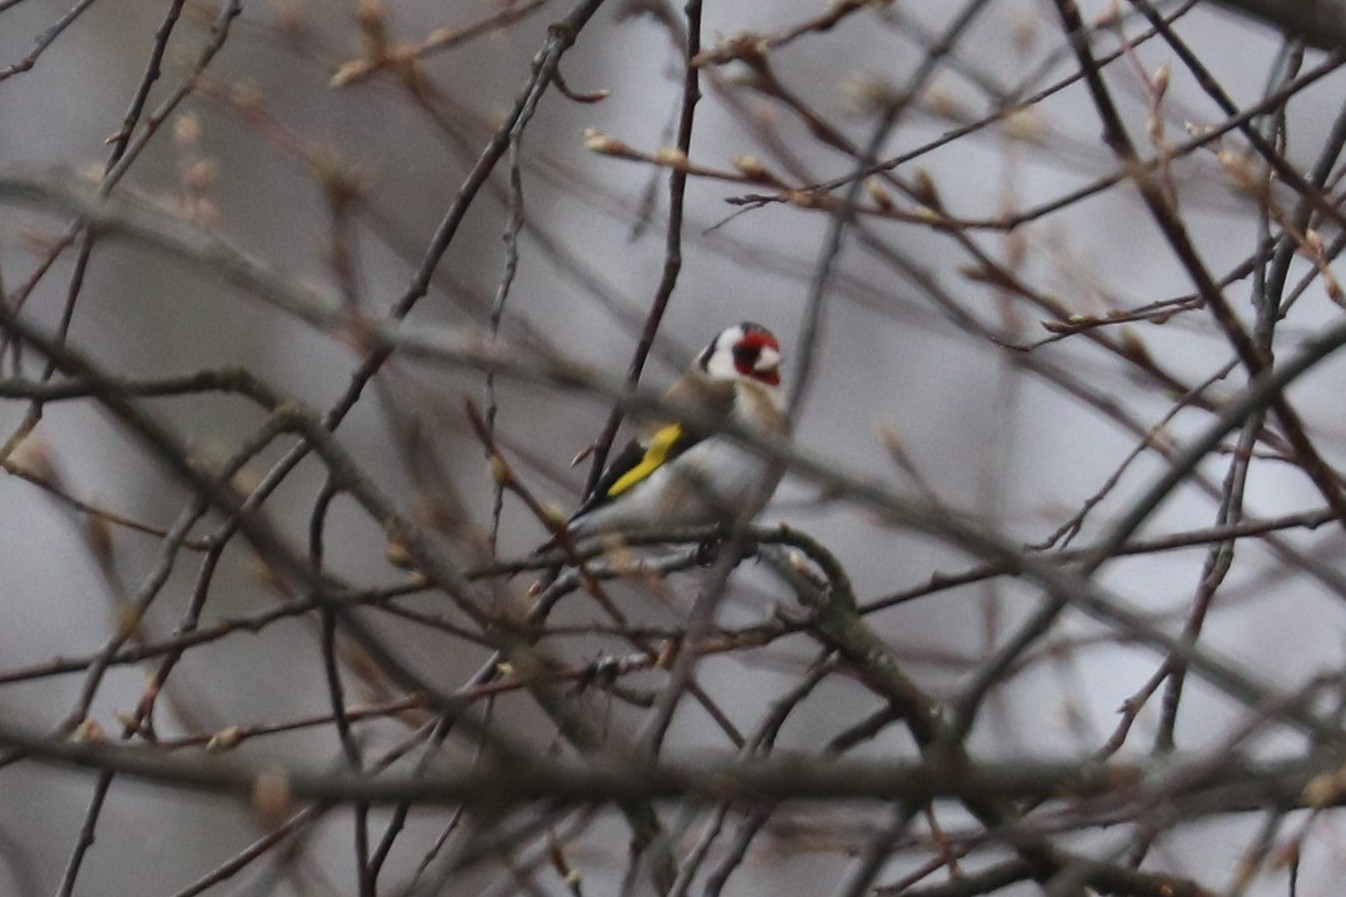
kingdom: Animalia
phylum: Chordata
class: Aves
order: Passeriformes
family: Fringillidae
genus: Carduelis
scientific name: Carduelis carduelis
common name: European goldfinch
